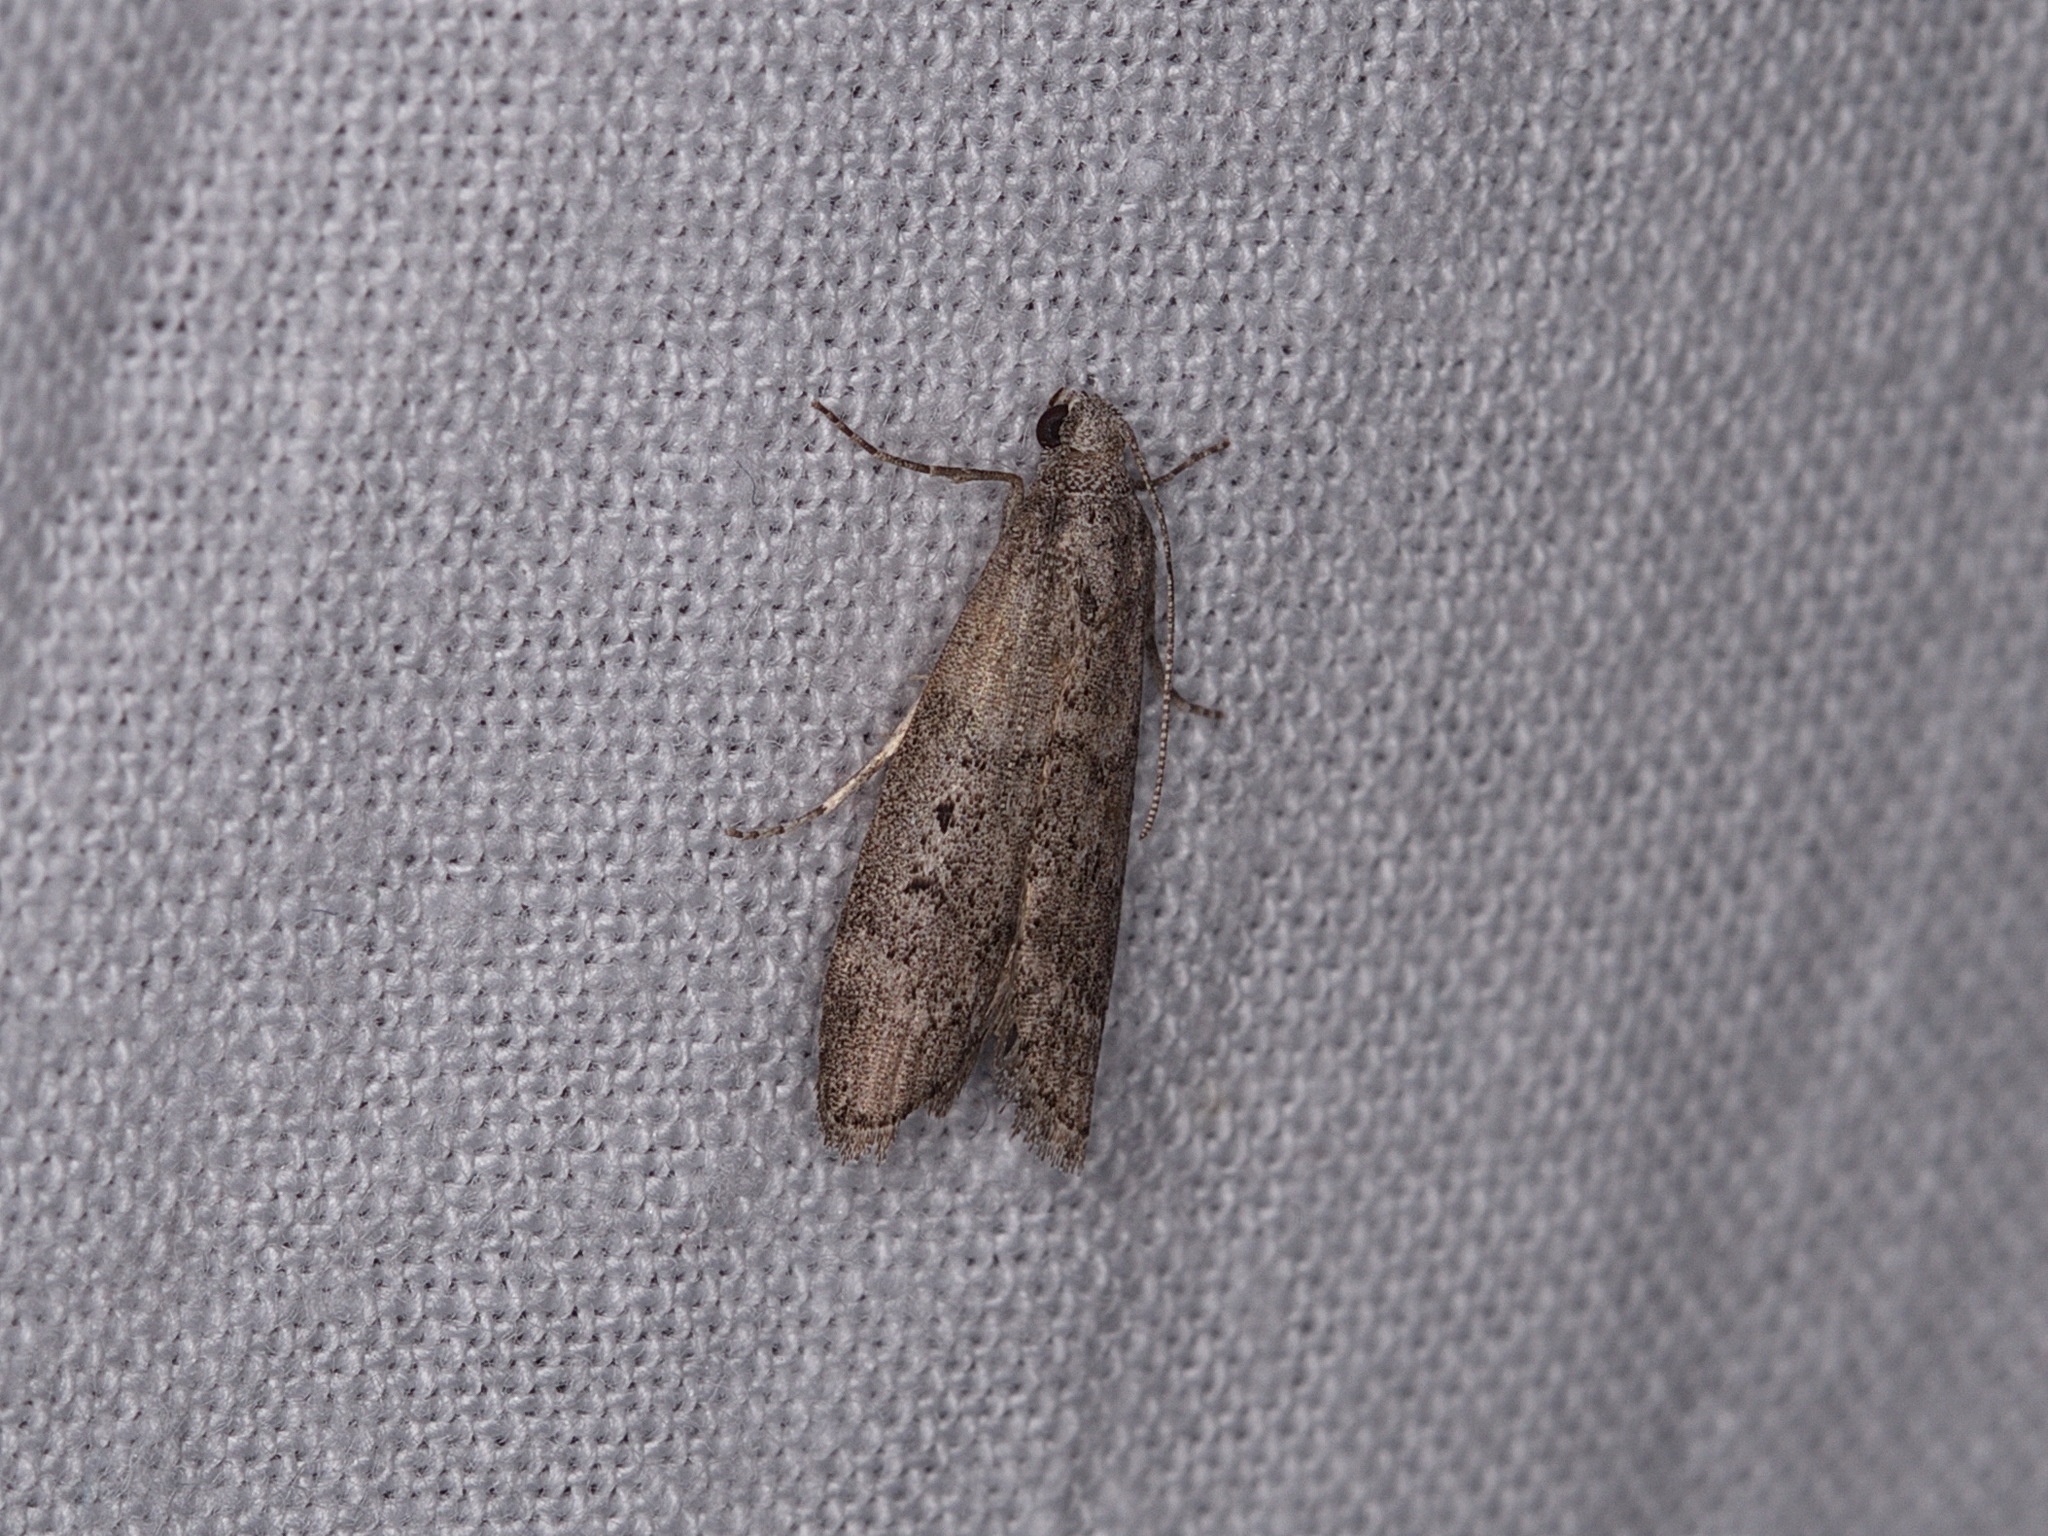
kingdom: Animalia
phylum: Arthropoda
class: Insecta
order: Lepidoptera
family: Pyralidae
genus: Heteromicta
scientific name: Heteromicta pachytera
